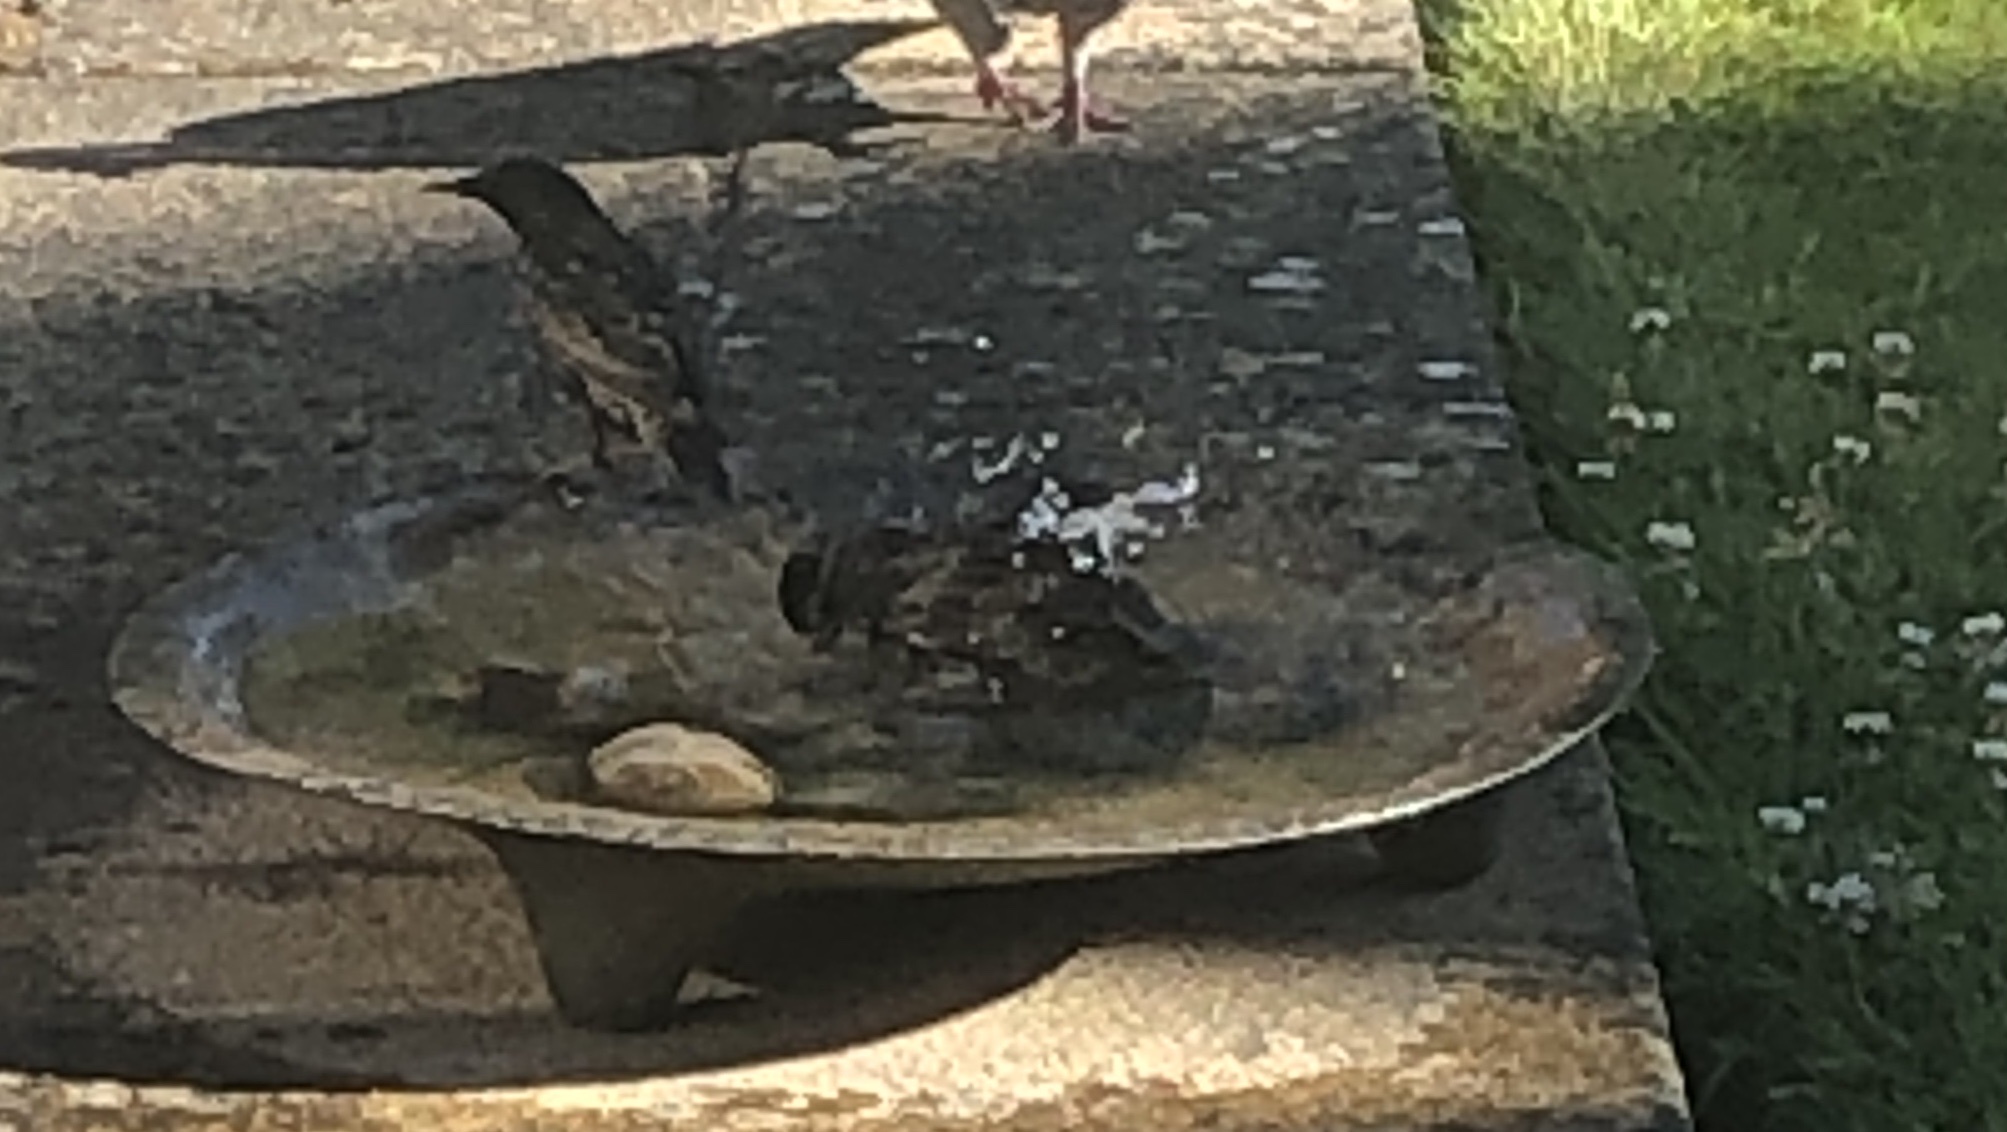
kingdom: Animalia
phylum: Chordata
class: Aves
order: Passeriformes
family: Sturnidae
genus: Sturnus
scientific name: Sturnus vulgaris
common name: Common starling
